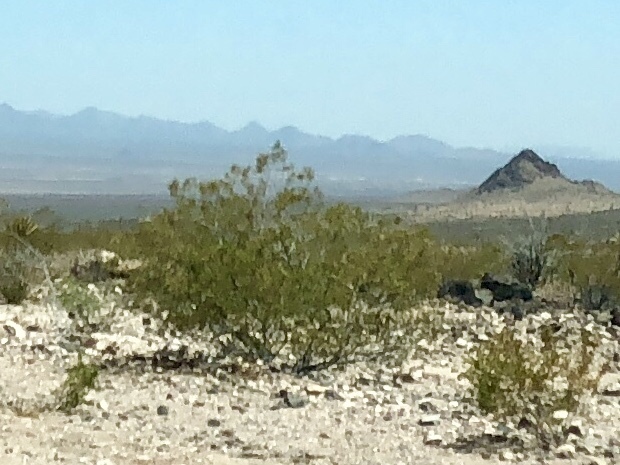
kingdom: Plantae
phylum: Tracheophyta
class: Magnoliopsida
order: Zygophyllales
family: Zygophyllaceae
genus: Larrea
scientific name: Larrea tridentata
